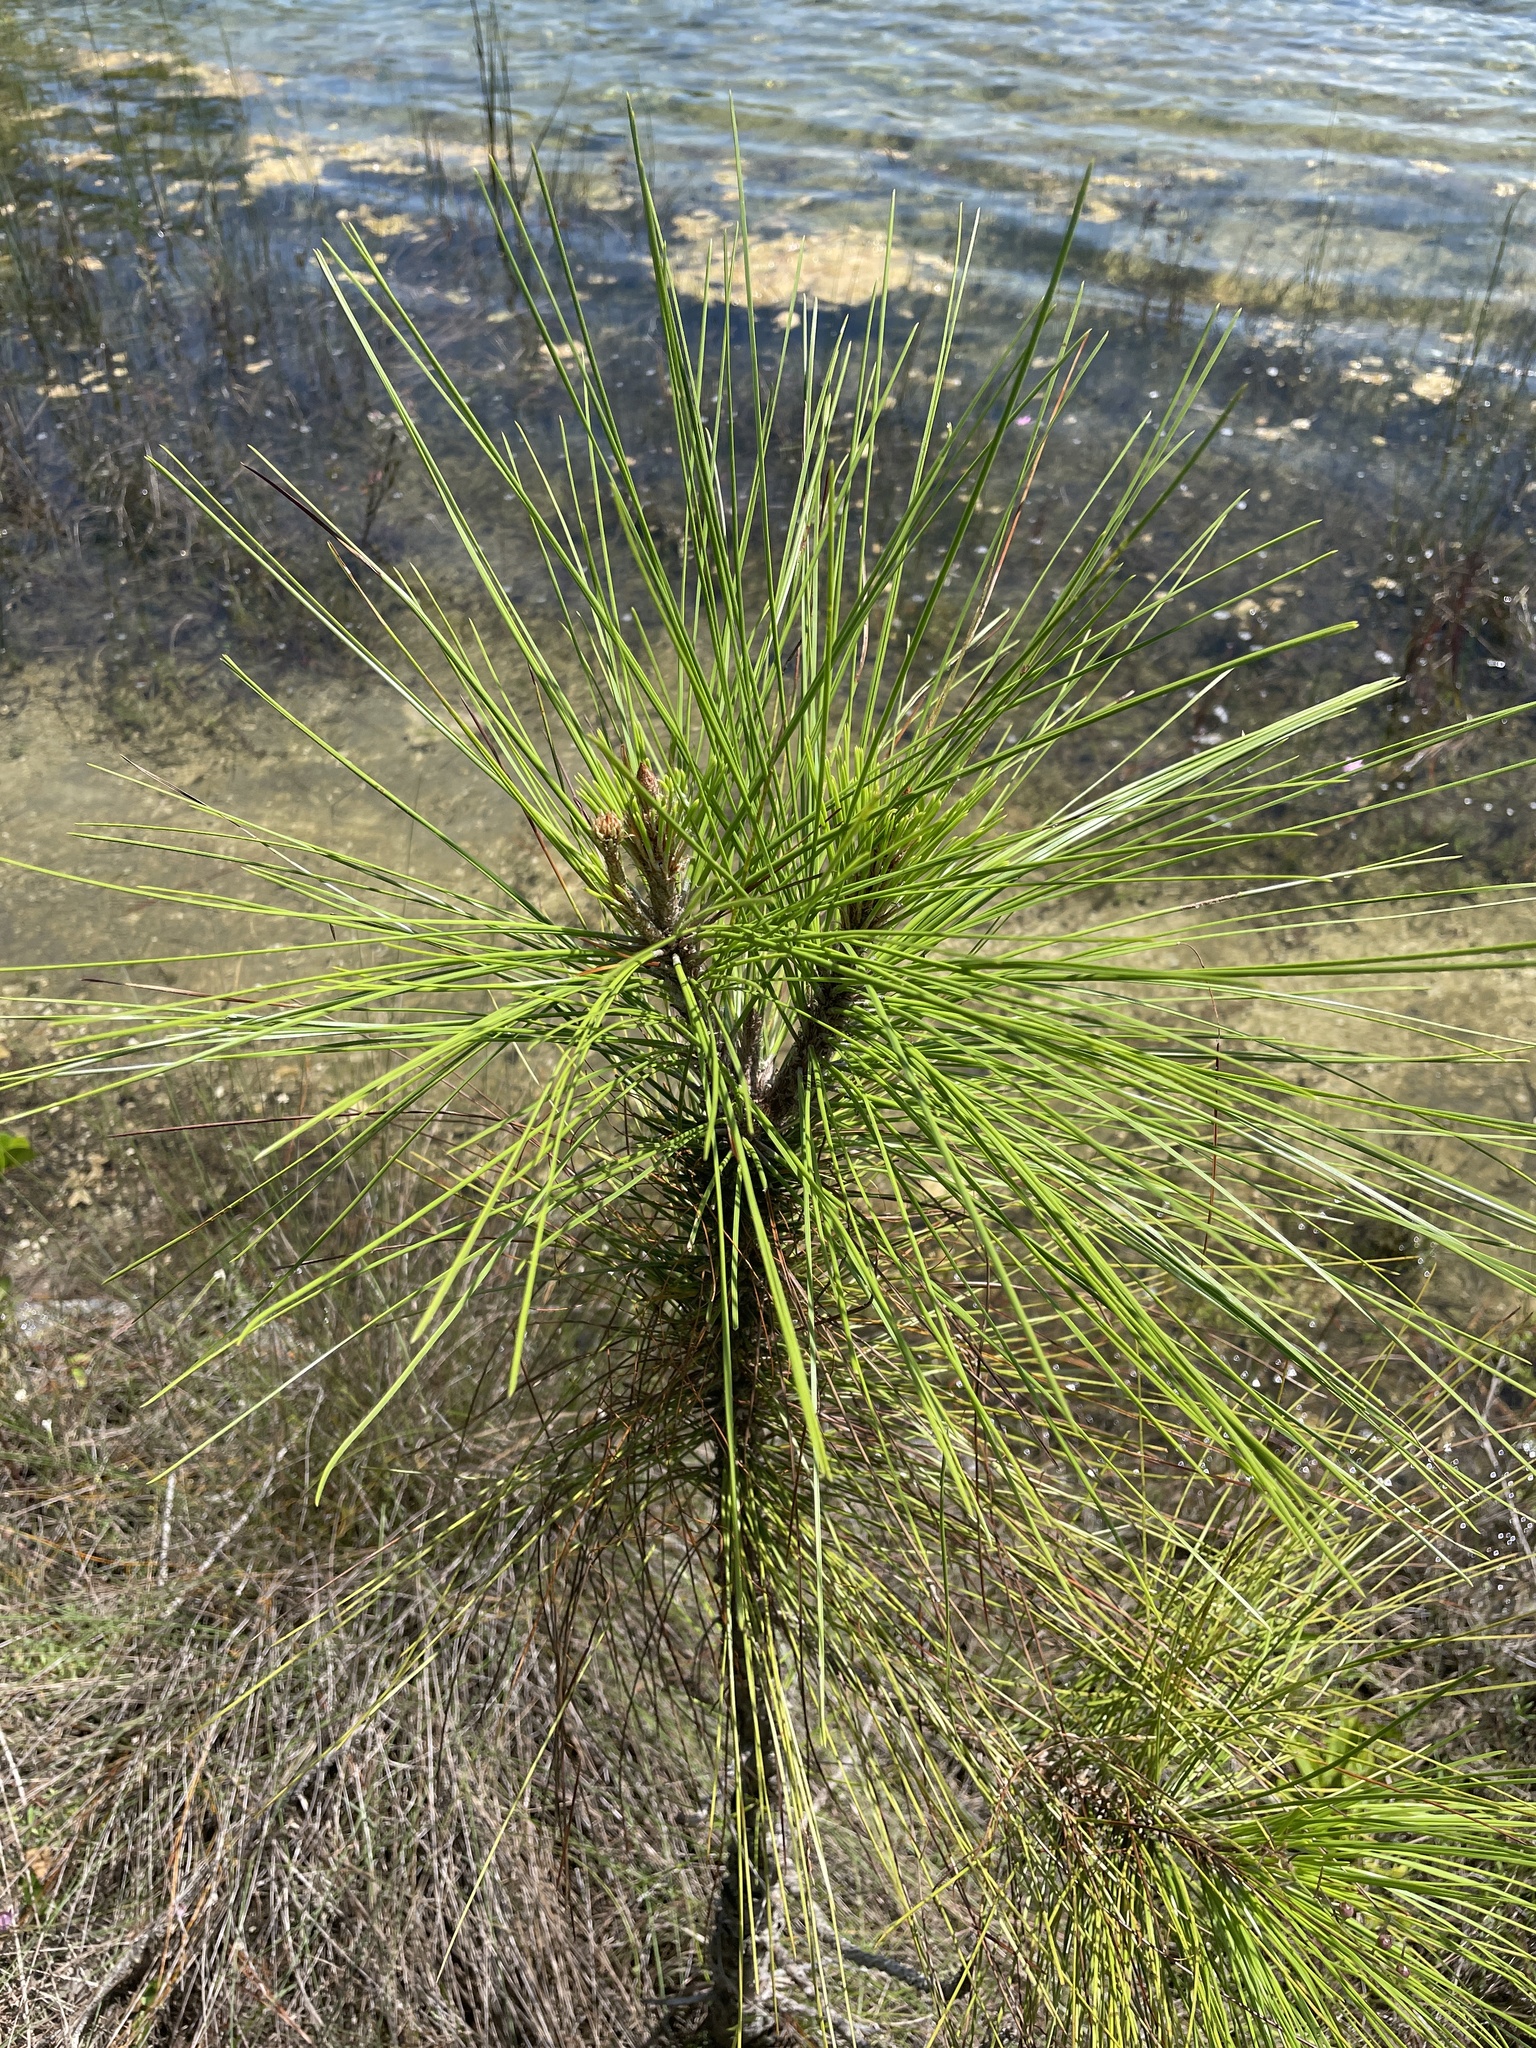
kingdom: Plantae
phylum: Tracheophyta
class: Pinopsida
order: Pinales
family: Pinaceae
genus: Pinus
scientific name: Pinus elliottii
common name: Slash pine
